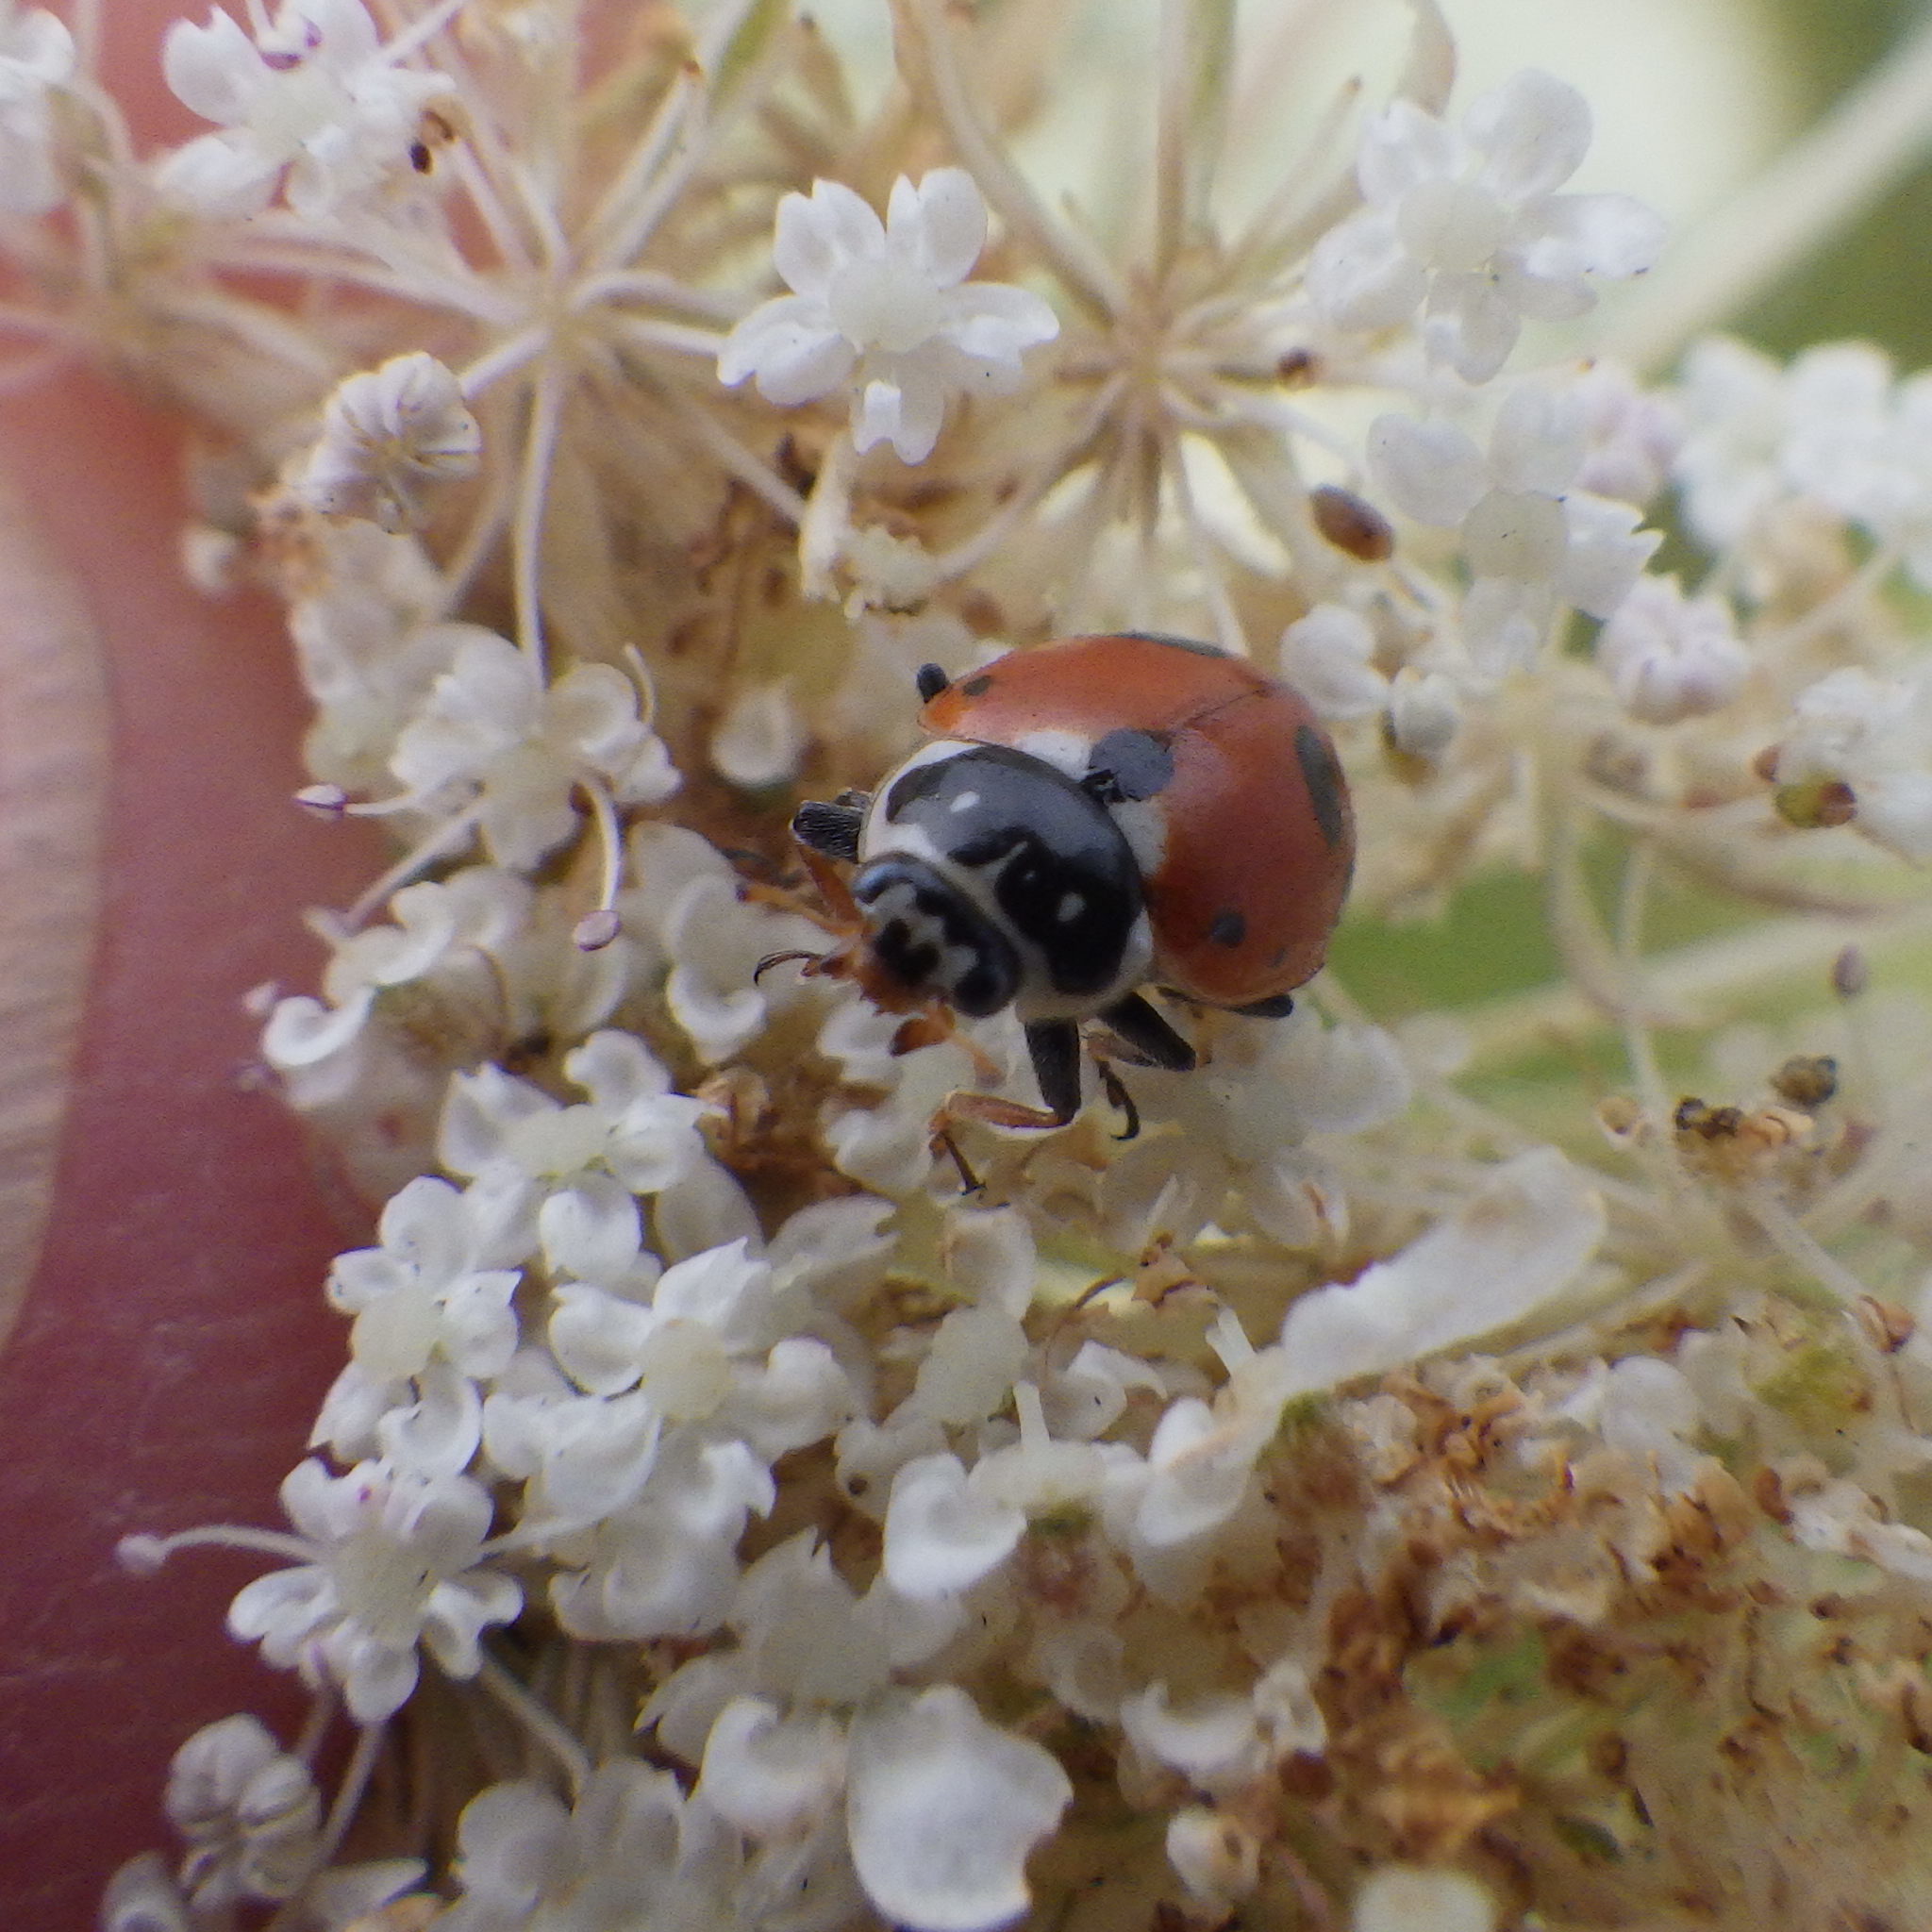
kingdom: Animalia
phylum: Arthropoda
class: Insecta
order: Coleoptera
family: Coccinellidae
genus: Hippodamia
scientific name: Hippodamia variegata
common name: Ladybird beetle
